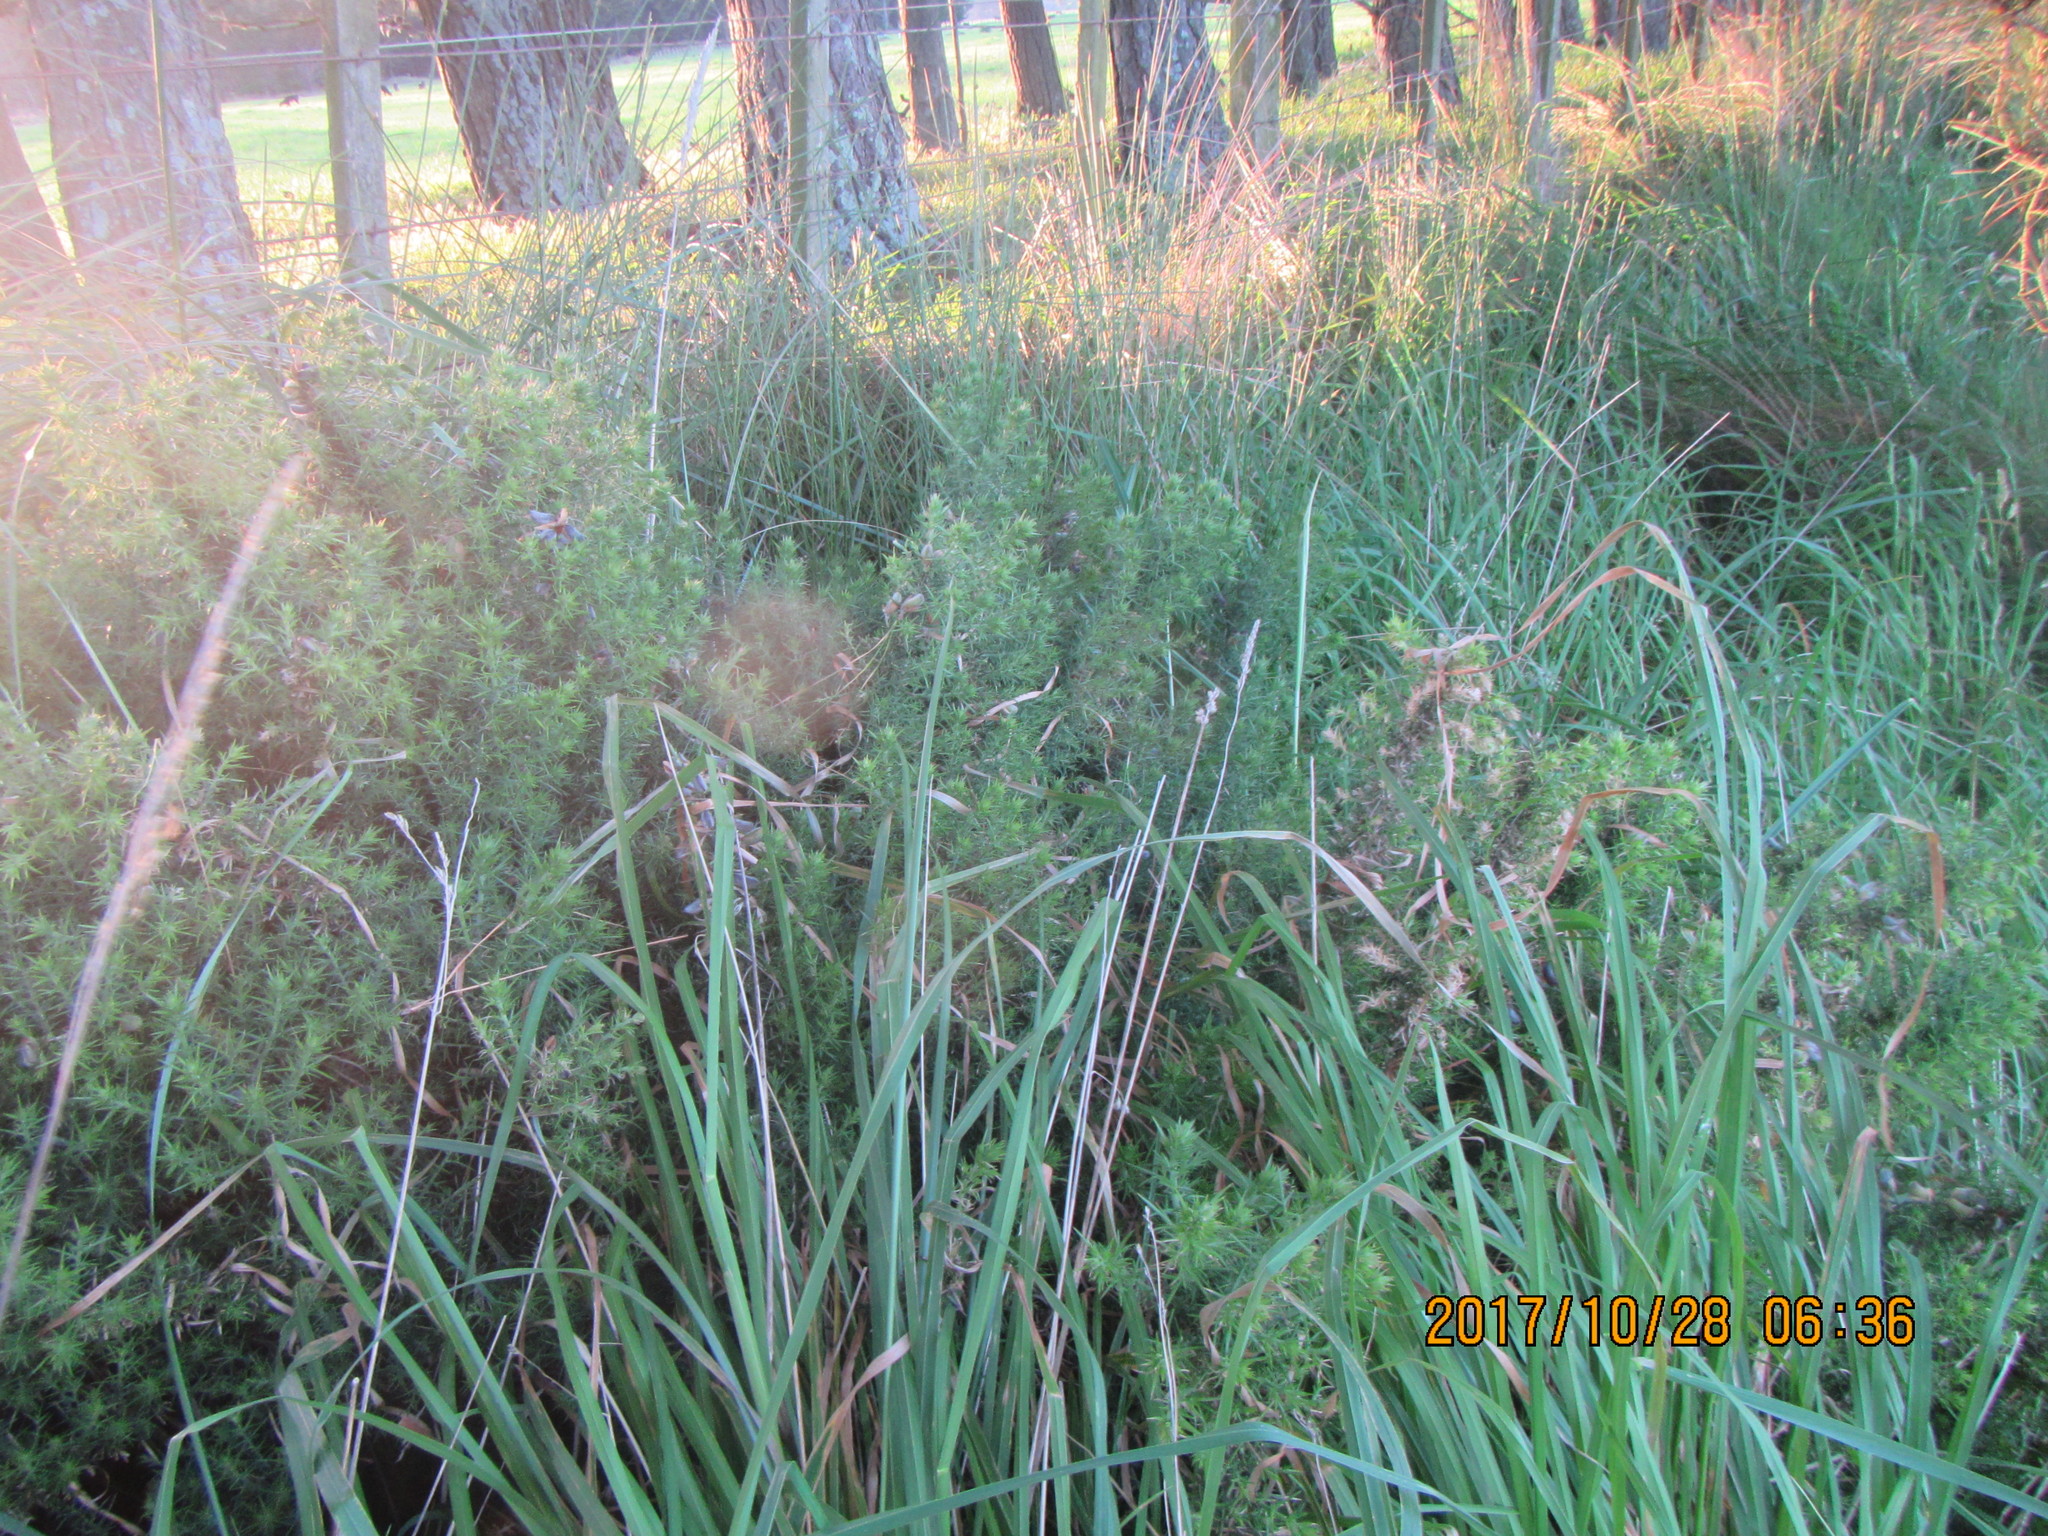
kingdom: Plantae
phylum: Tracheophyta
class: Magnoliopsida
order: Fabales
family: Fabaceae
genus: Ulex
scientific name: Ulex europaeus
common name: Common gorse
